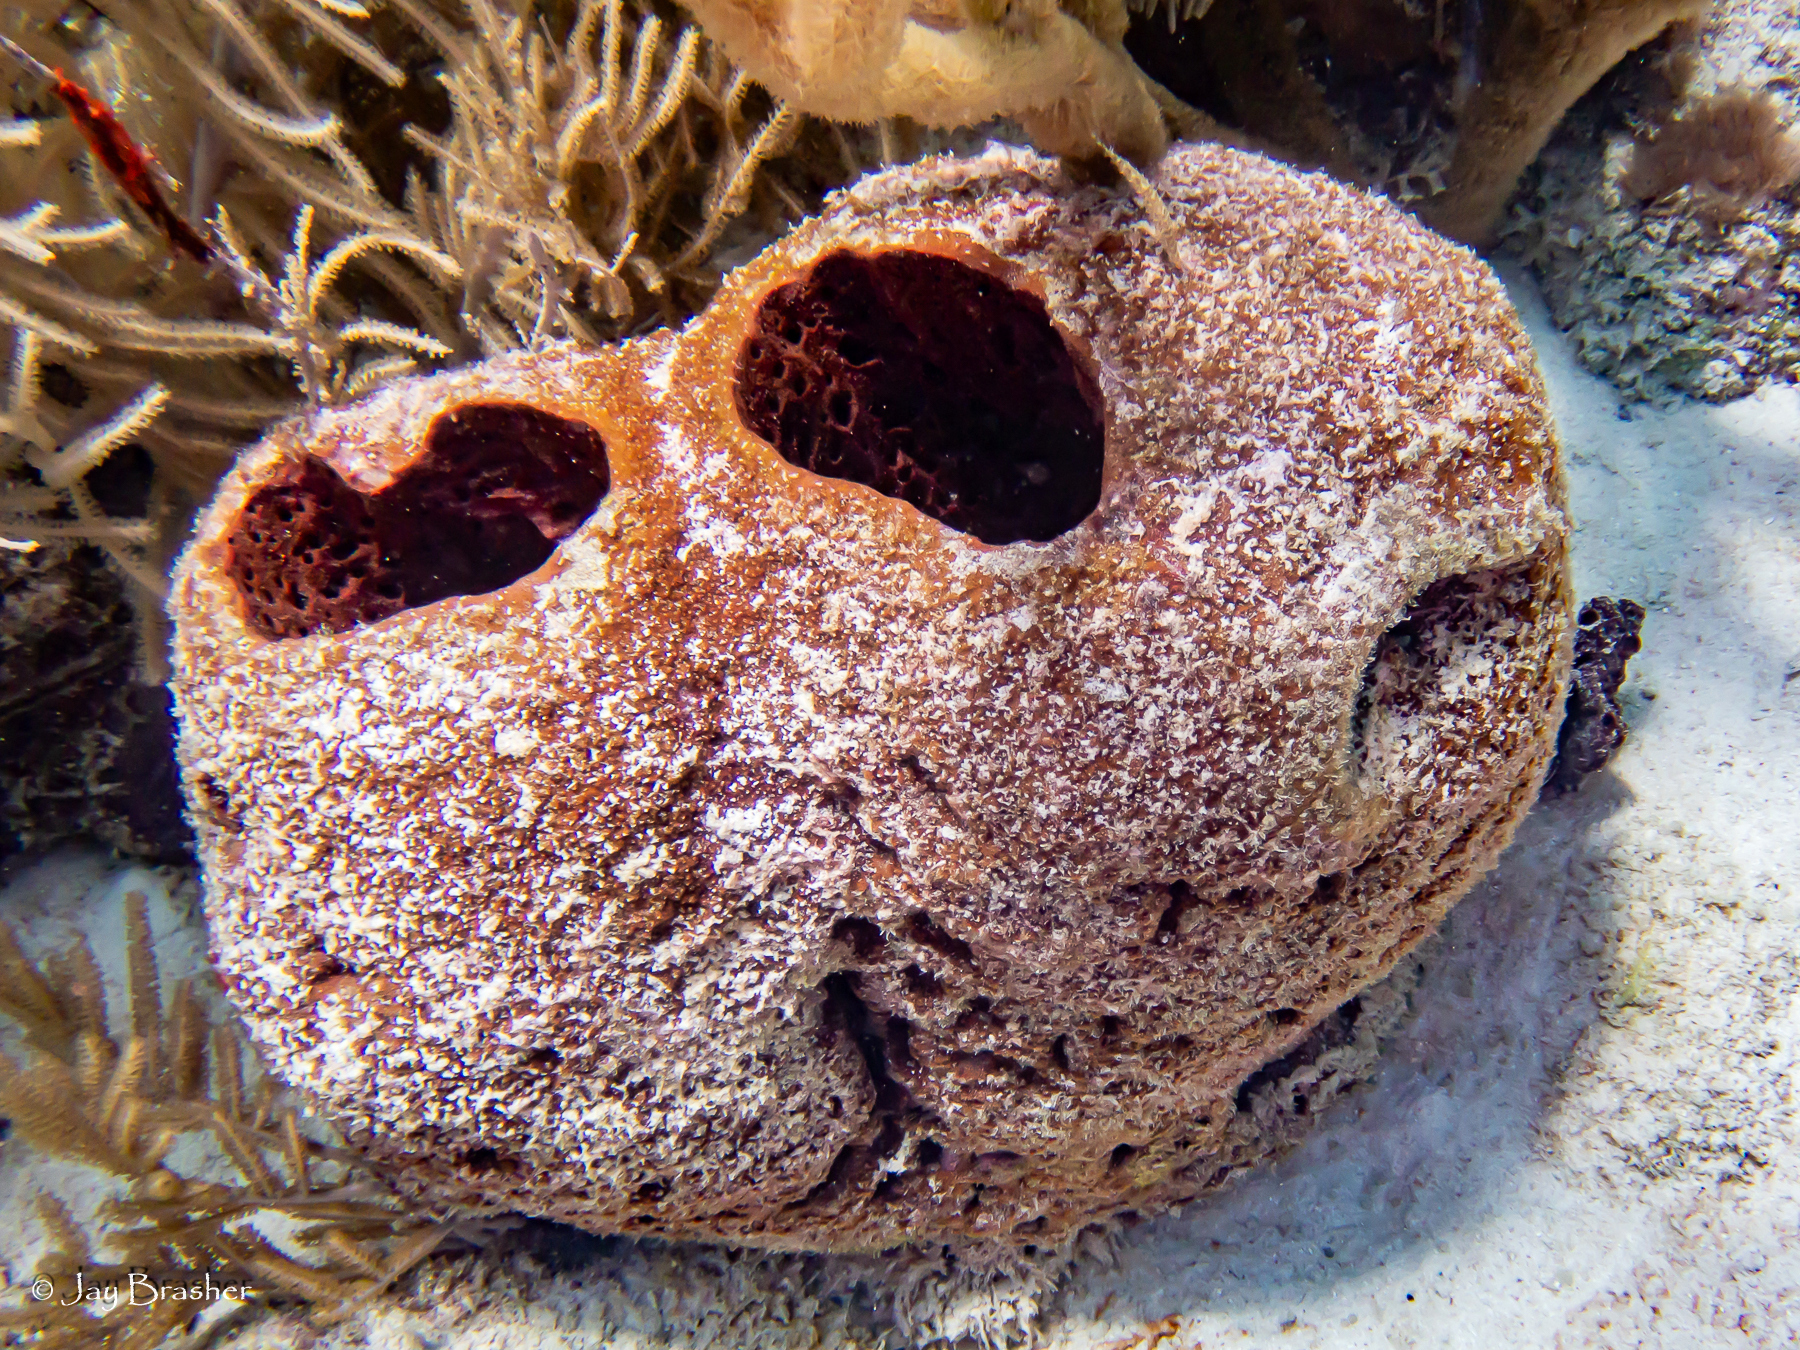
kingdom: Animalia
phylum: Porifera
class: Demospongiae
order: Biemnida
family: Biemnidae
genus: Neofibularia
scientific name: Neofibularia nolitangere
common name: Do-not-touch-me sponge
